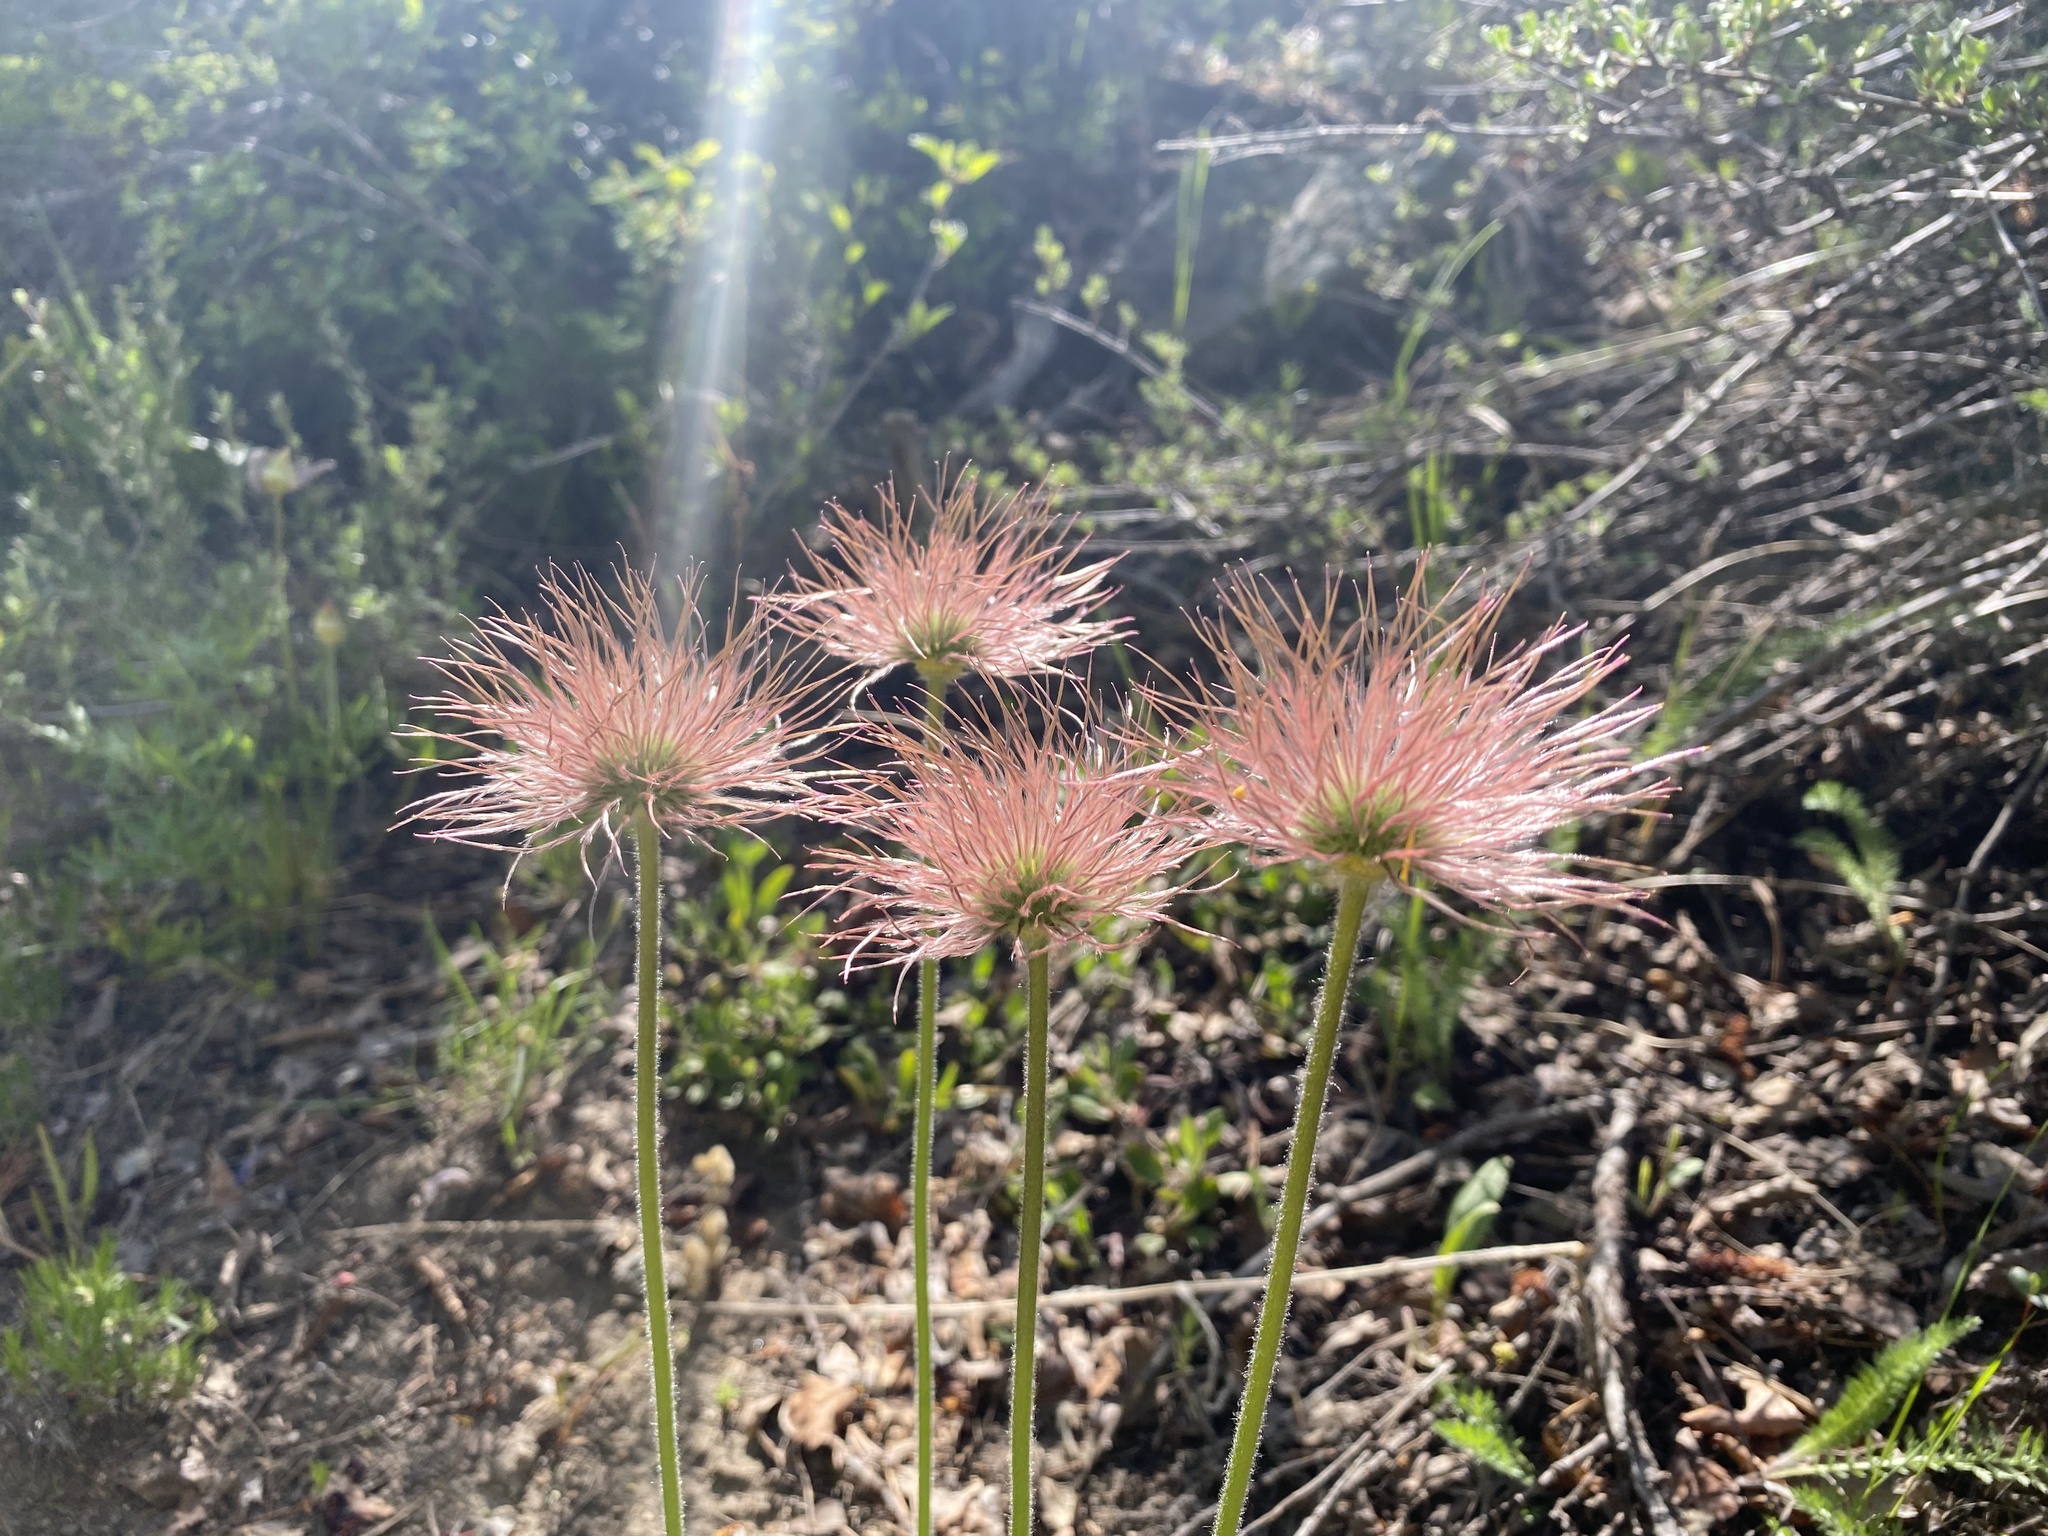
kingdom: Plantae
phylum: Tracheophyta
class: Magnoliopsida
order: Ranunculales
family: Ranunculaceae
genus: Pulsatilla
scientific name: Pulsatilla nuttalliana
